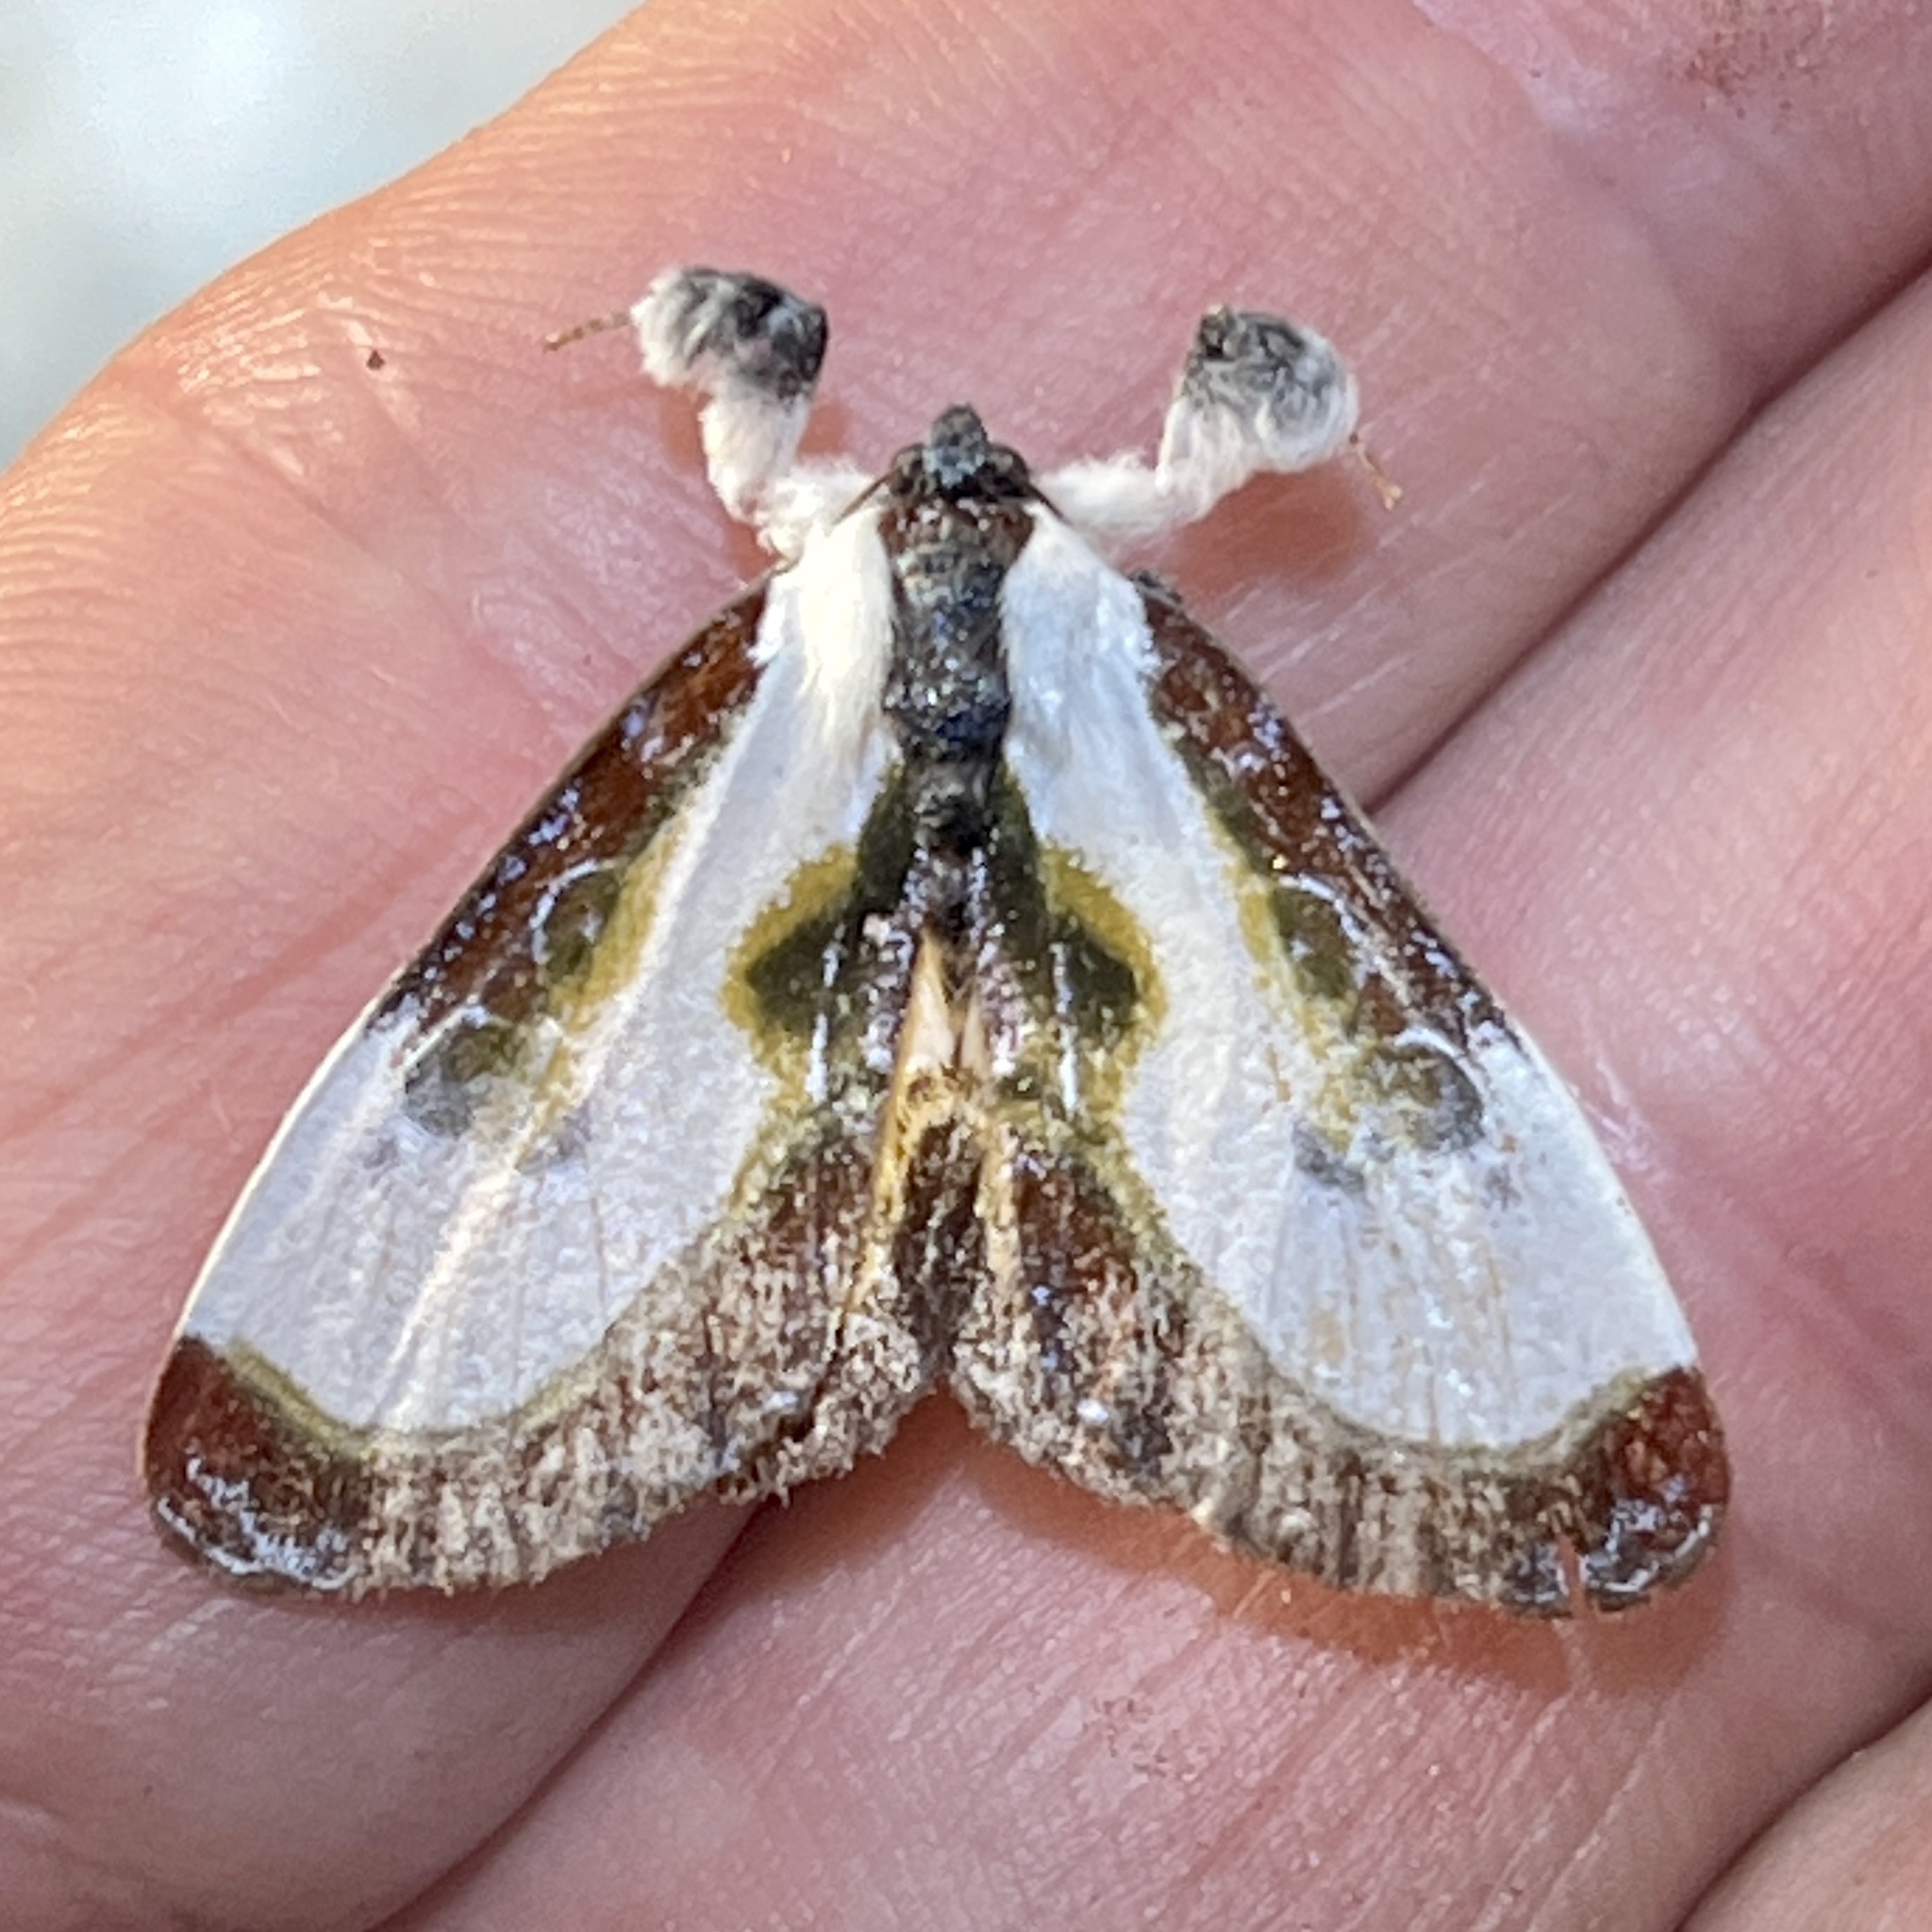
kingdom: Animalia
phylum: Arthropoda
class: Insecta
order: Lepidoptera
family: Noctuidae
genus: Eudryas
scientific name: Eudryas grata
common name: Beautiful wood-nymph
